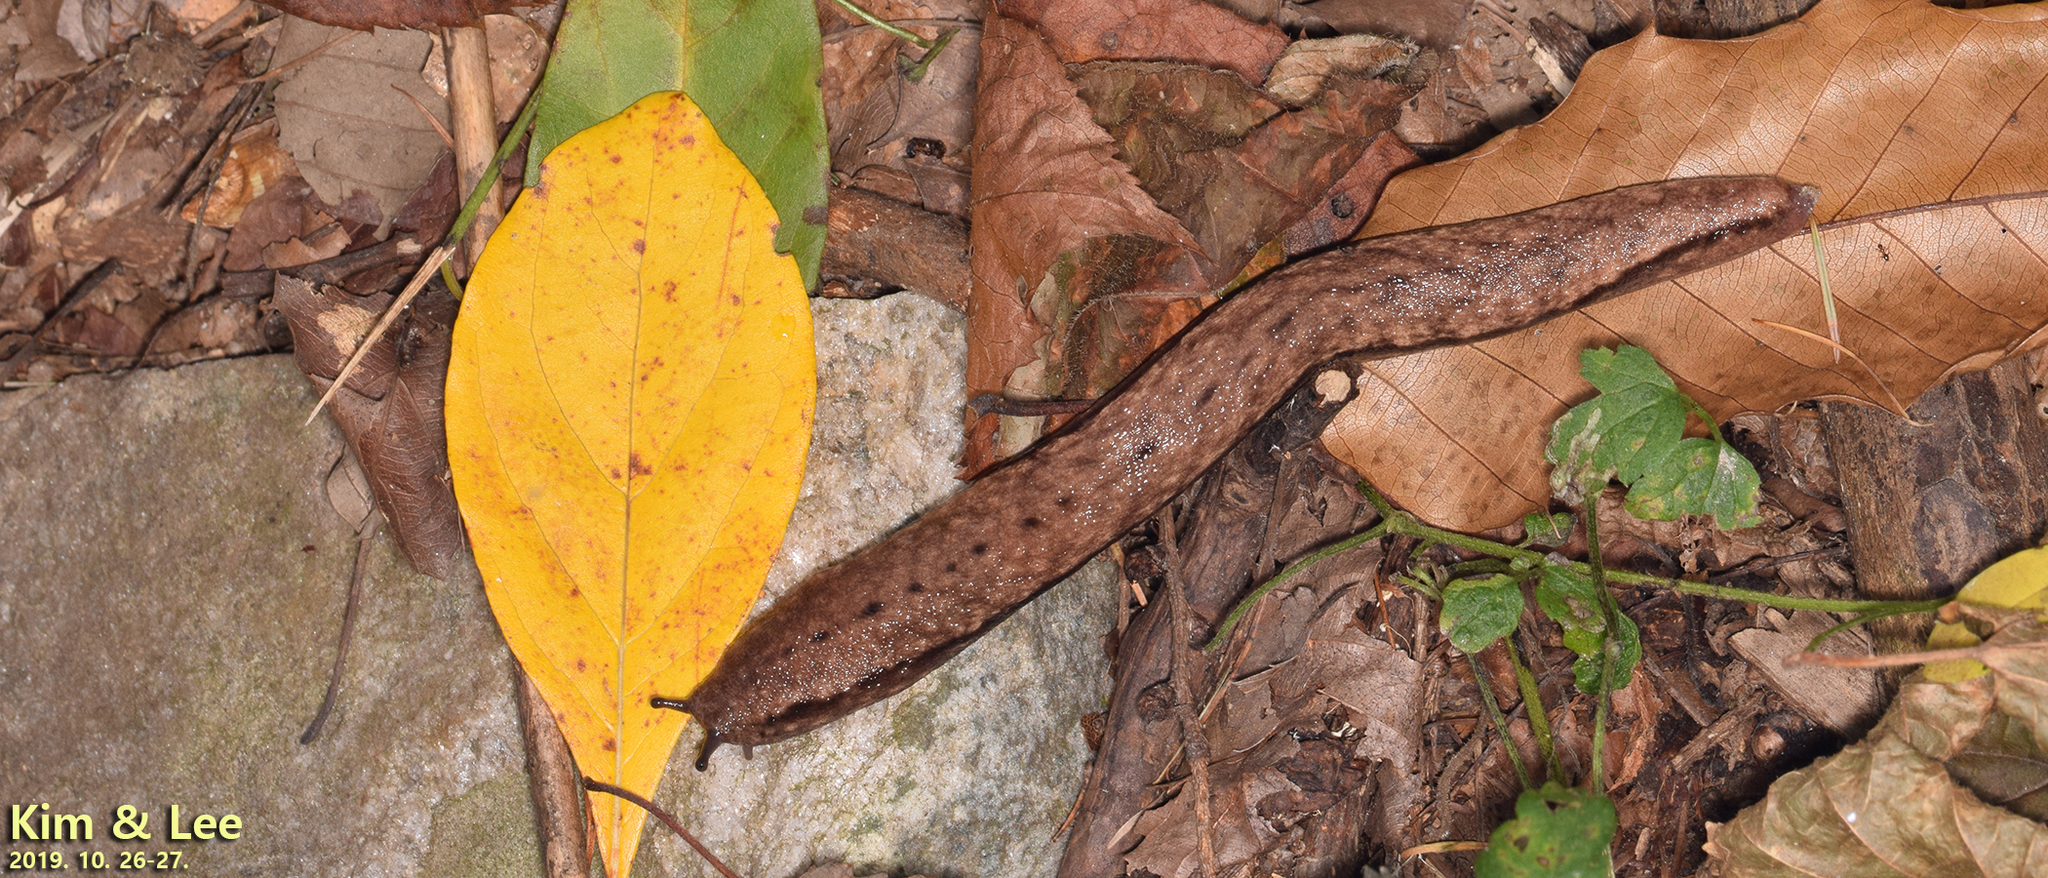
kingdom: Animalia
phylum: Mollusca
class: Gastropoda
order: Stylommatophora
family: Philomycidae
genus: Meghimatium
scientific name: Meghimatium fruhstorferi
